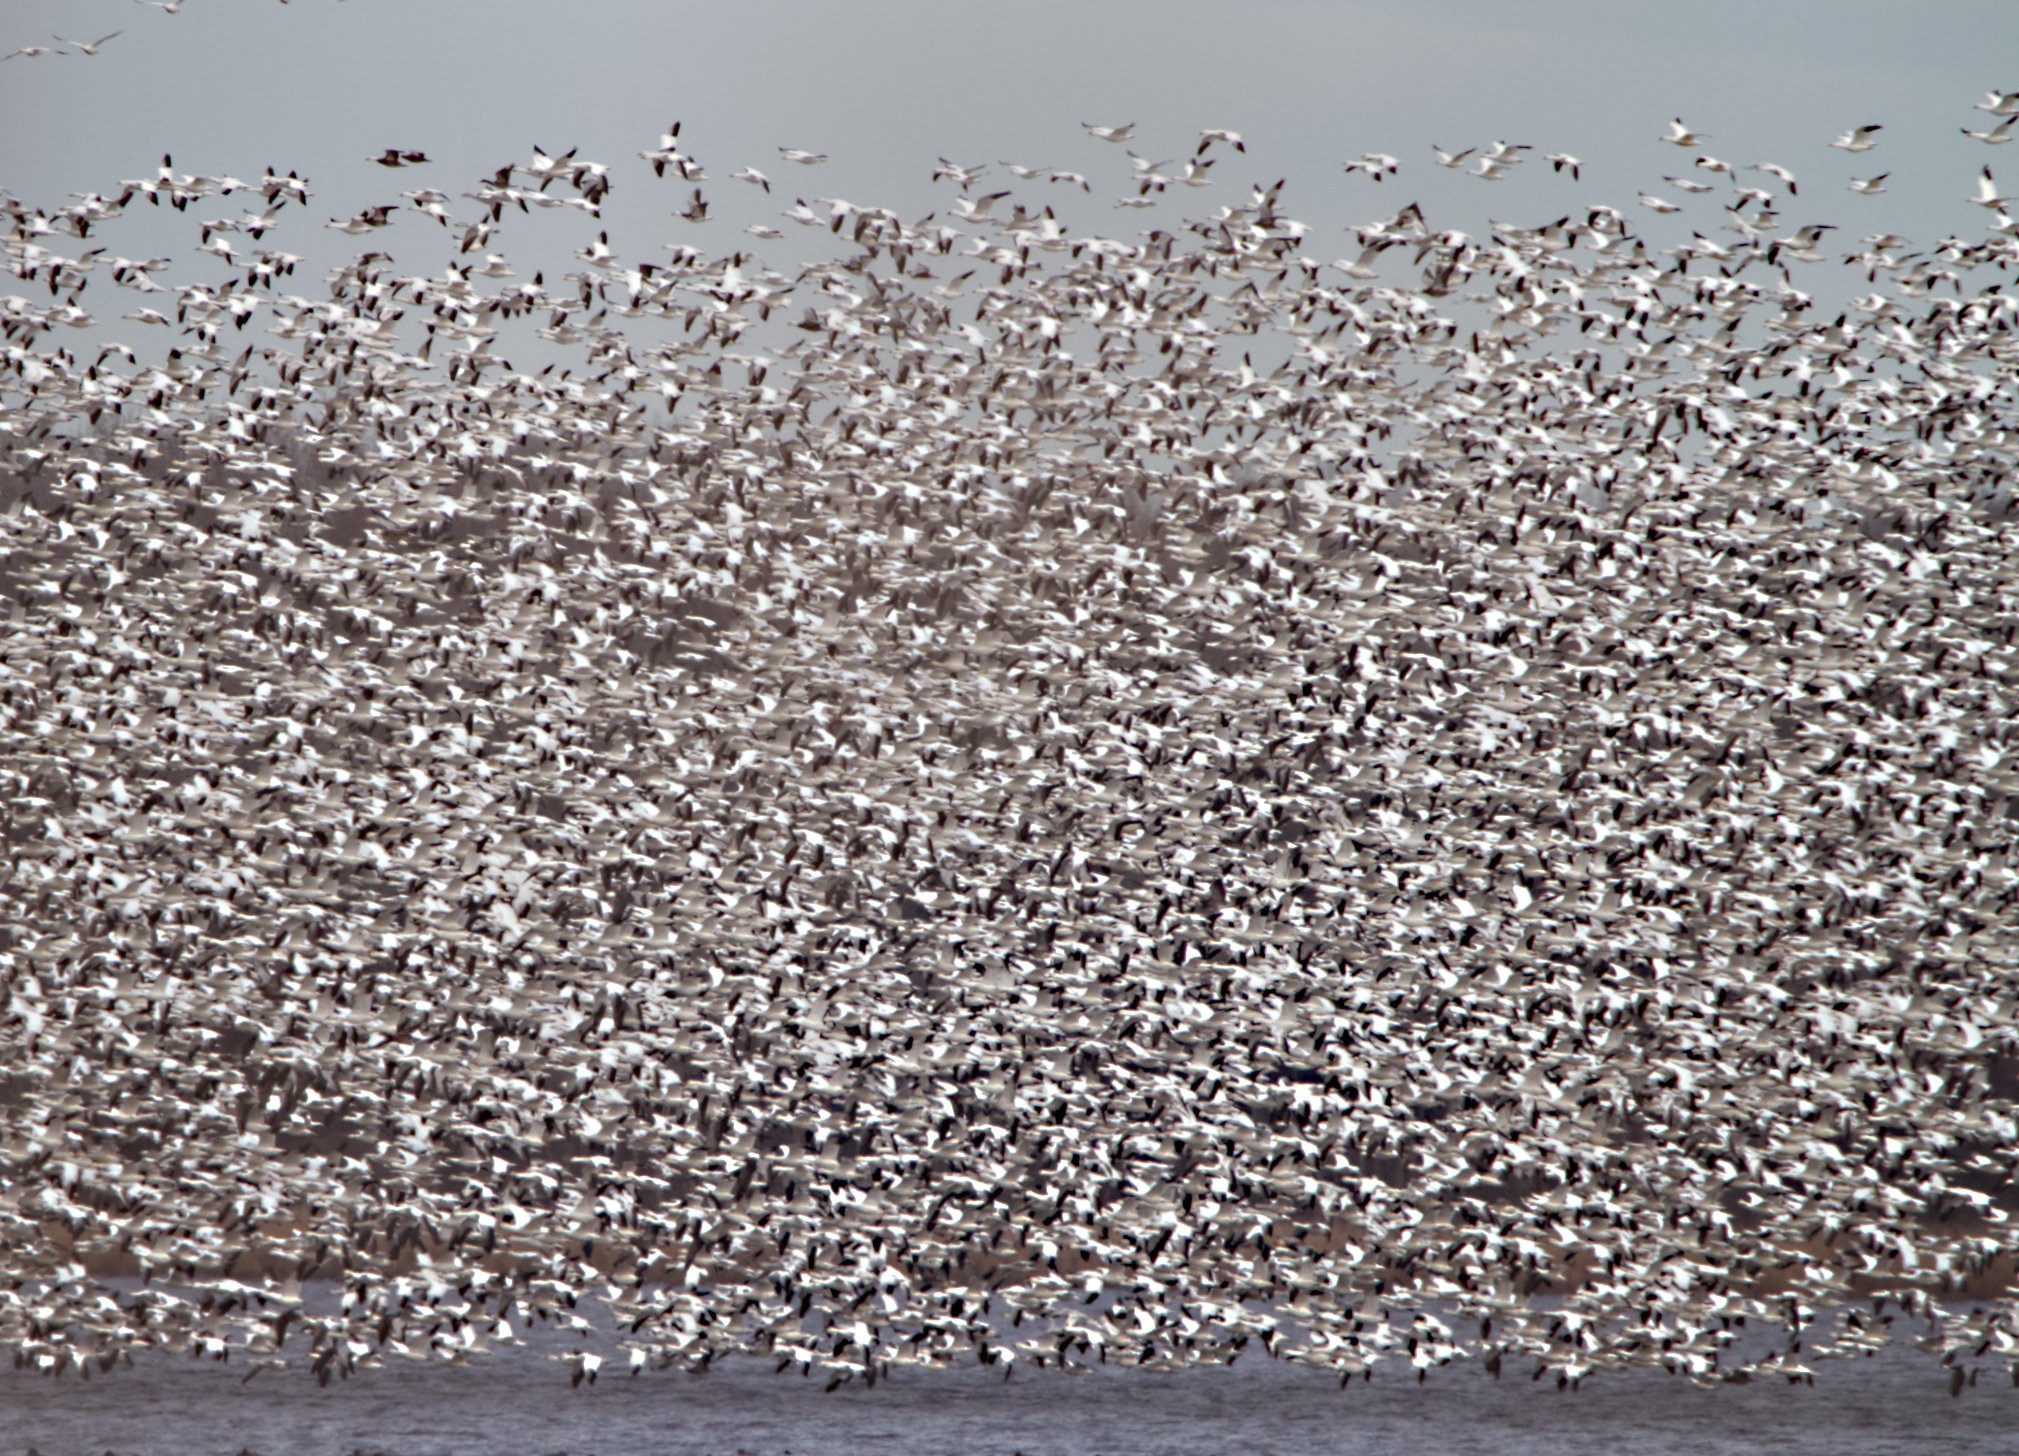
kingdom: Animalia
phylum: Chordata
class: Aves
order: Anseriformes
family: Anatidae
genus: Anser
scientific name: Anser caerulescens
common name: Snow goose
